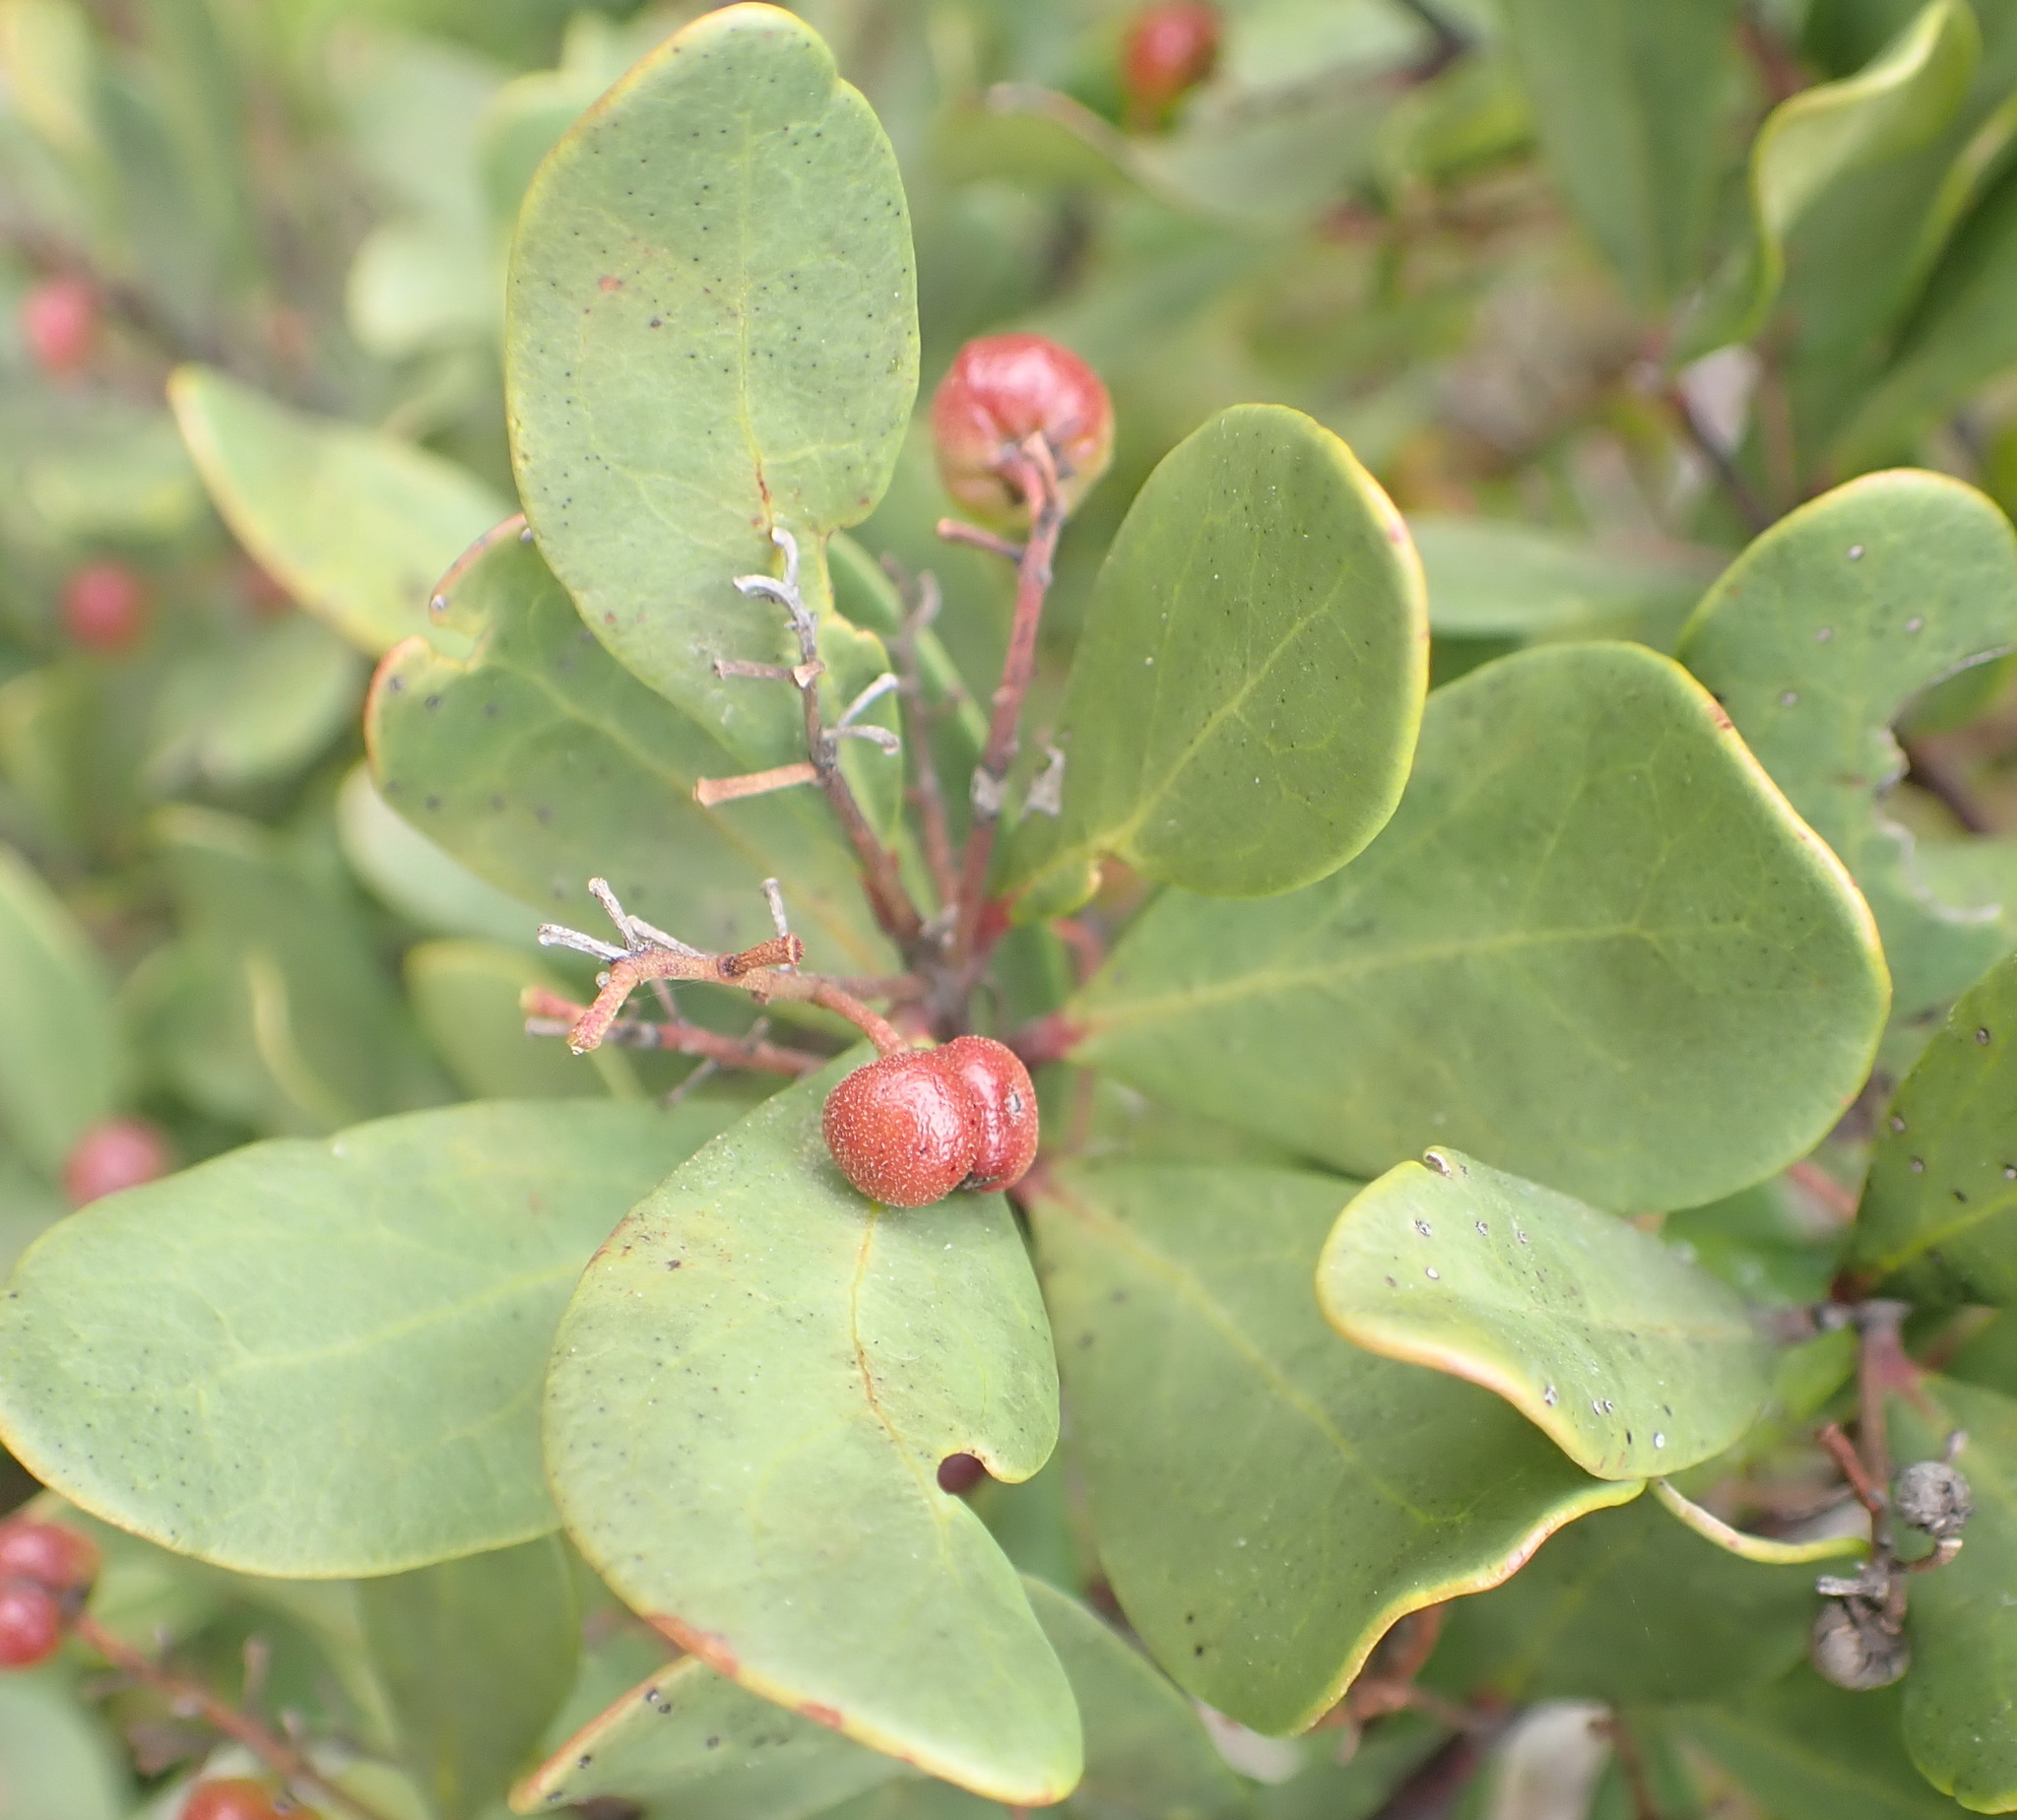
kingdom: Plantae
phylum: Tracheophyta
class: Magnoliopsida
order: Ericales
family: Ebenaceae
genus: Euclea
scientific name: Euclea racemosa
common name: Dune guarri
